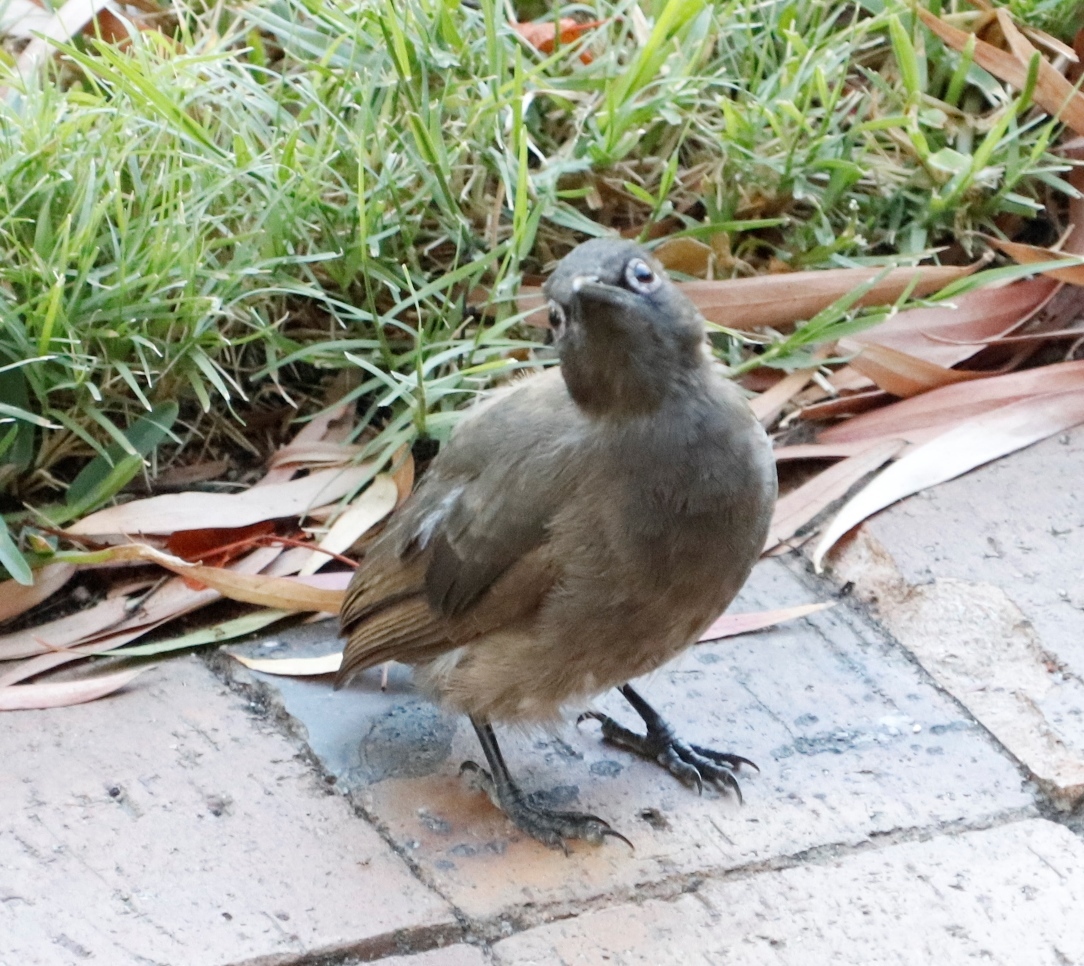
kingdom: Animalia
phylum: Chordata
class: Aves
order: Passeriformes
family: Pycnonotidae
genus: Pycnonotus
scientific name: Pycnonotus capensis
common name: Cape bulbul
